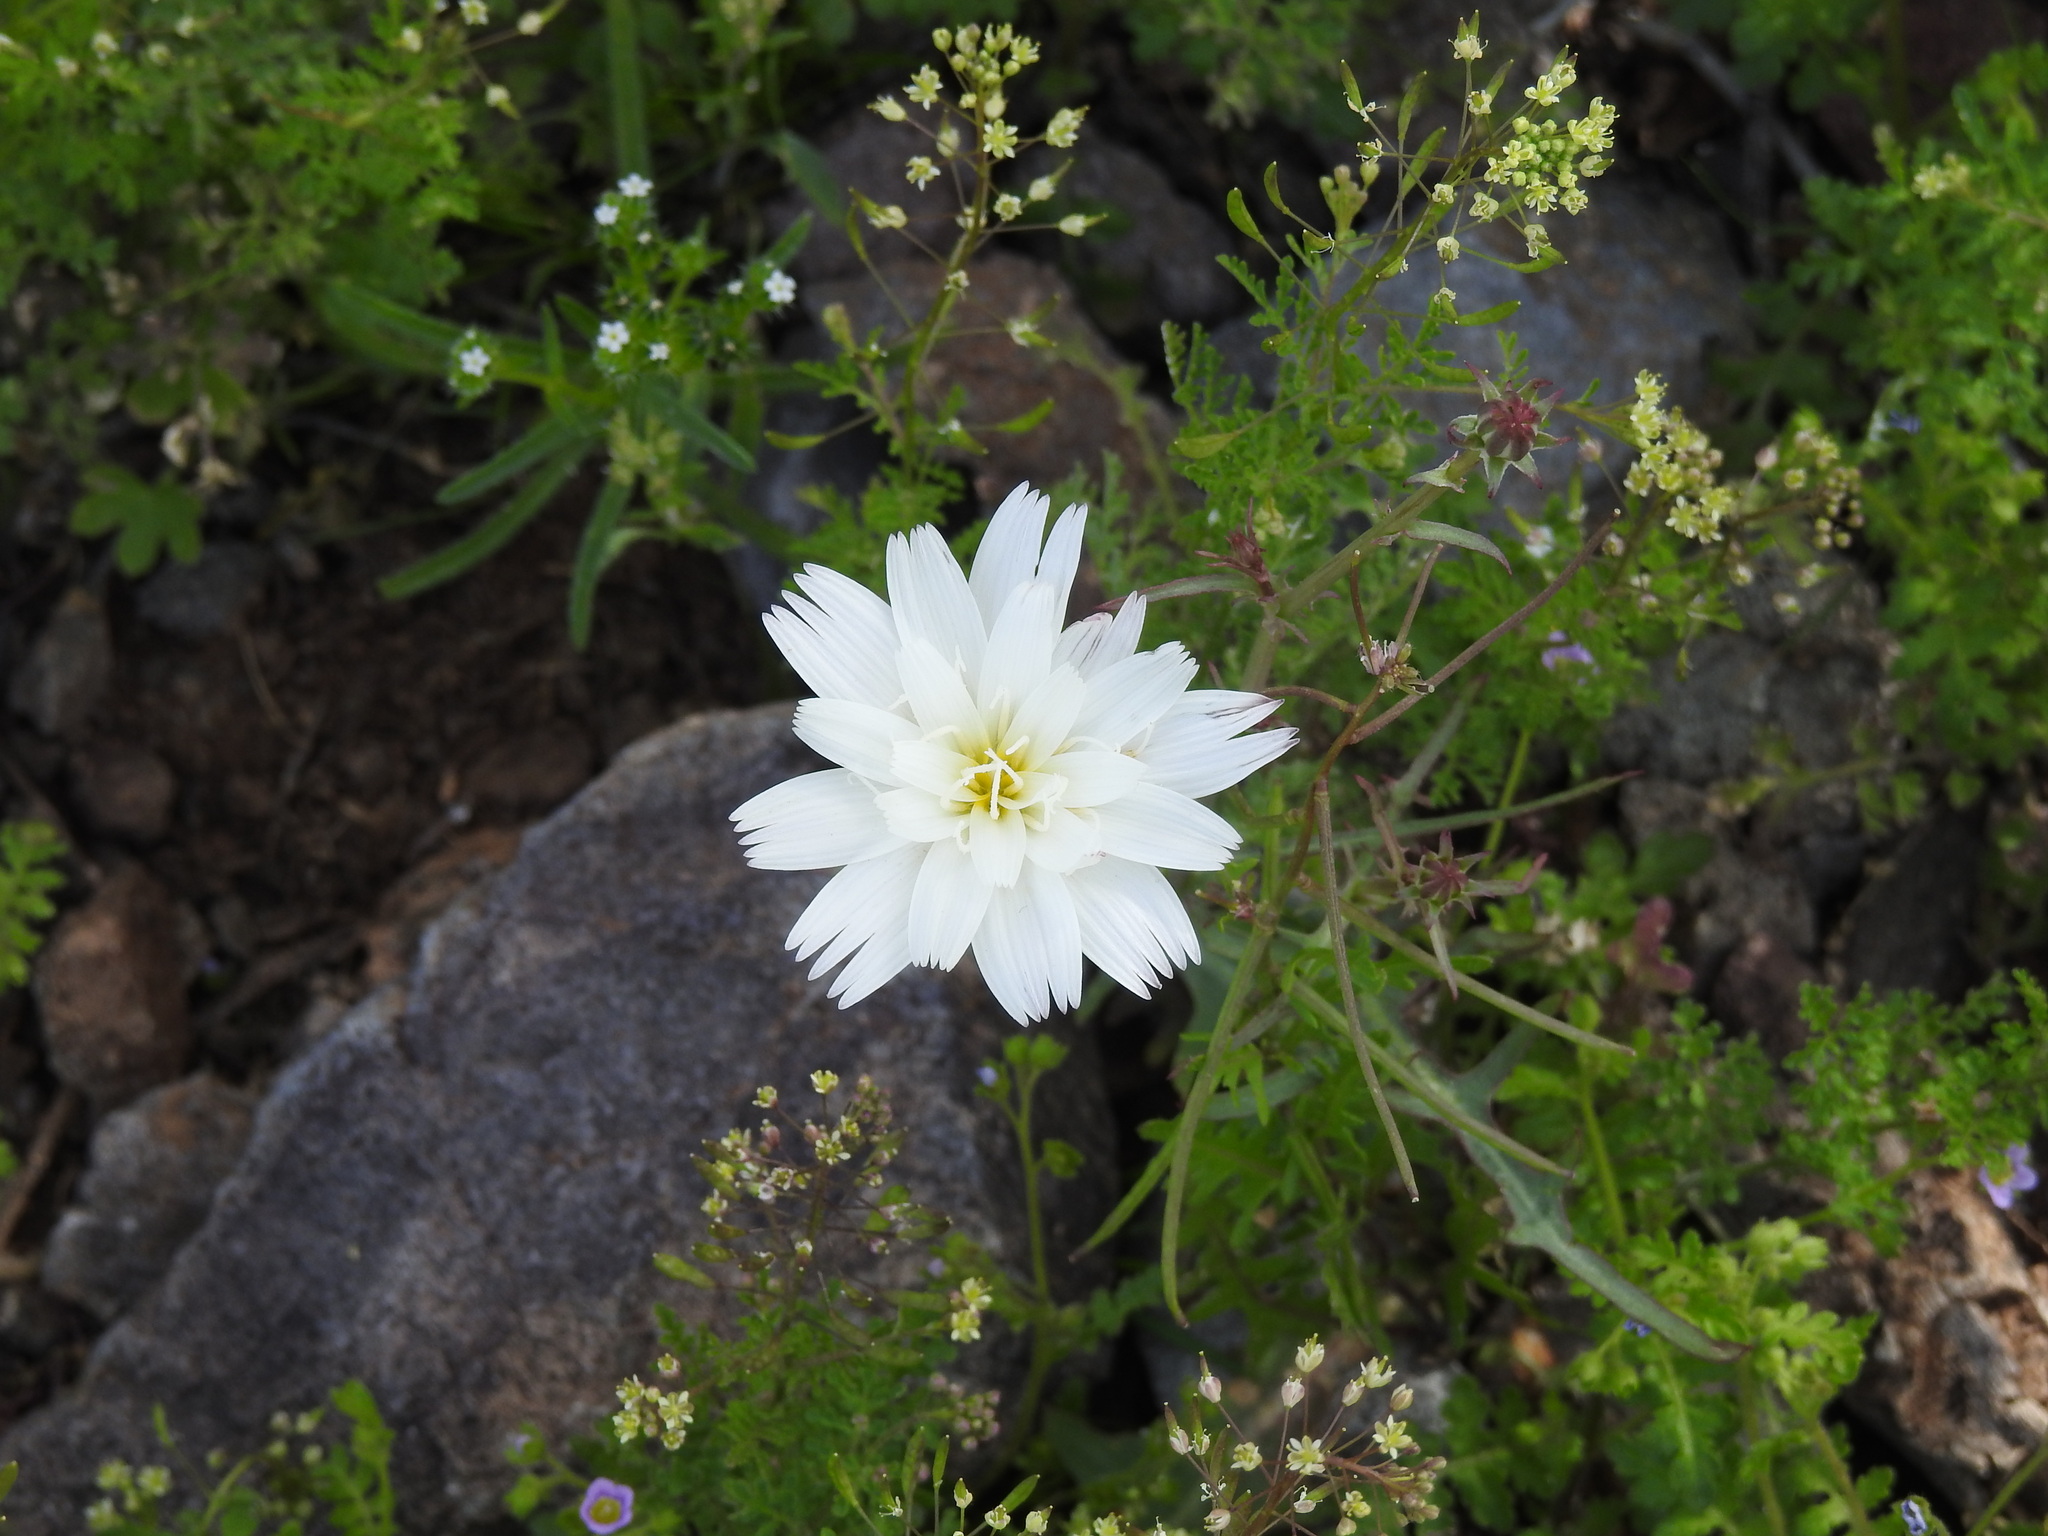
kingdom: Plantae
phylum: Tracheophyta
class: Magnoliopsida
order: Asterales
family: Asteraceae
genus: Rafinesquia
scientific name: Rafinesquia neomexicana
